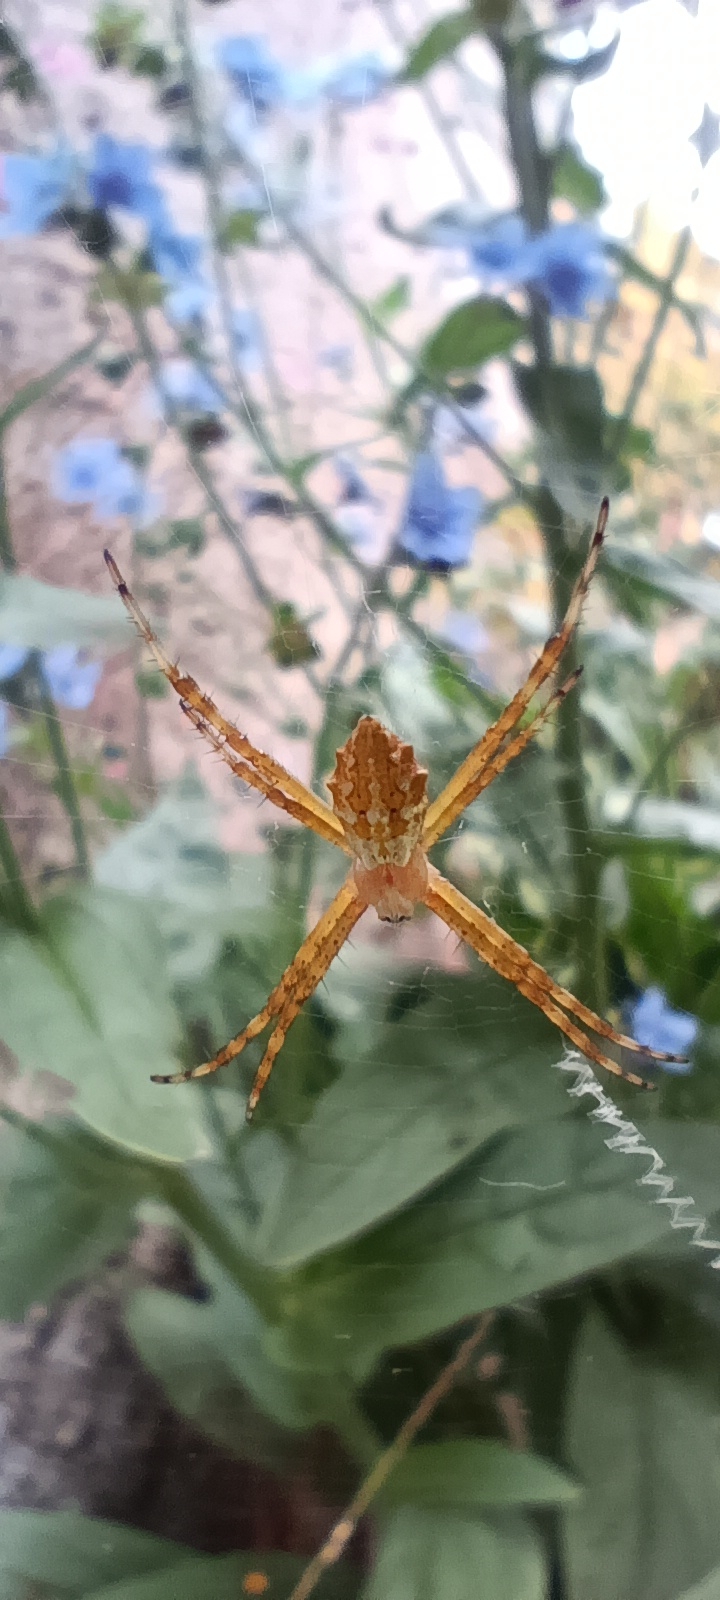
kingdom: Animalia
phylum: Arthropoda
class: Arachnida
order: Araneae
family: Araneidae
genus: Argiope
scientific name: Argiope argentata
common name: Orb weavers
